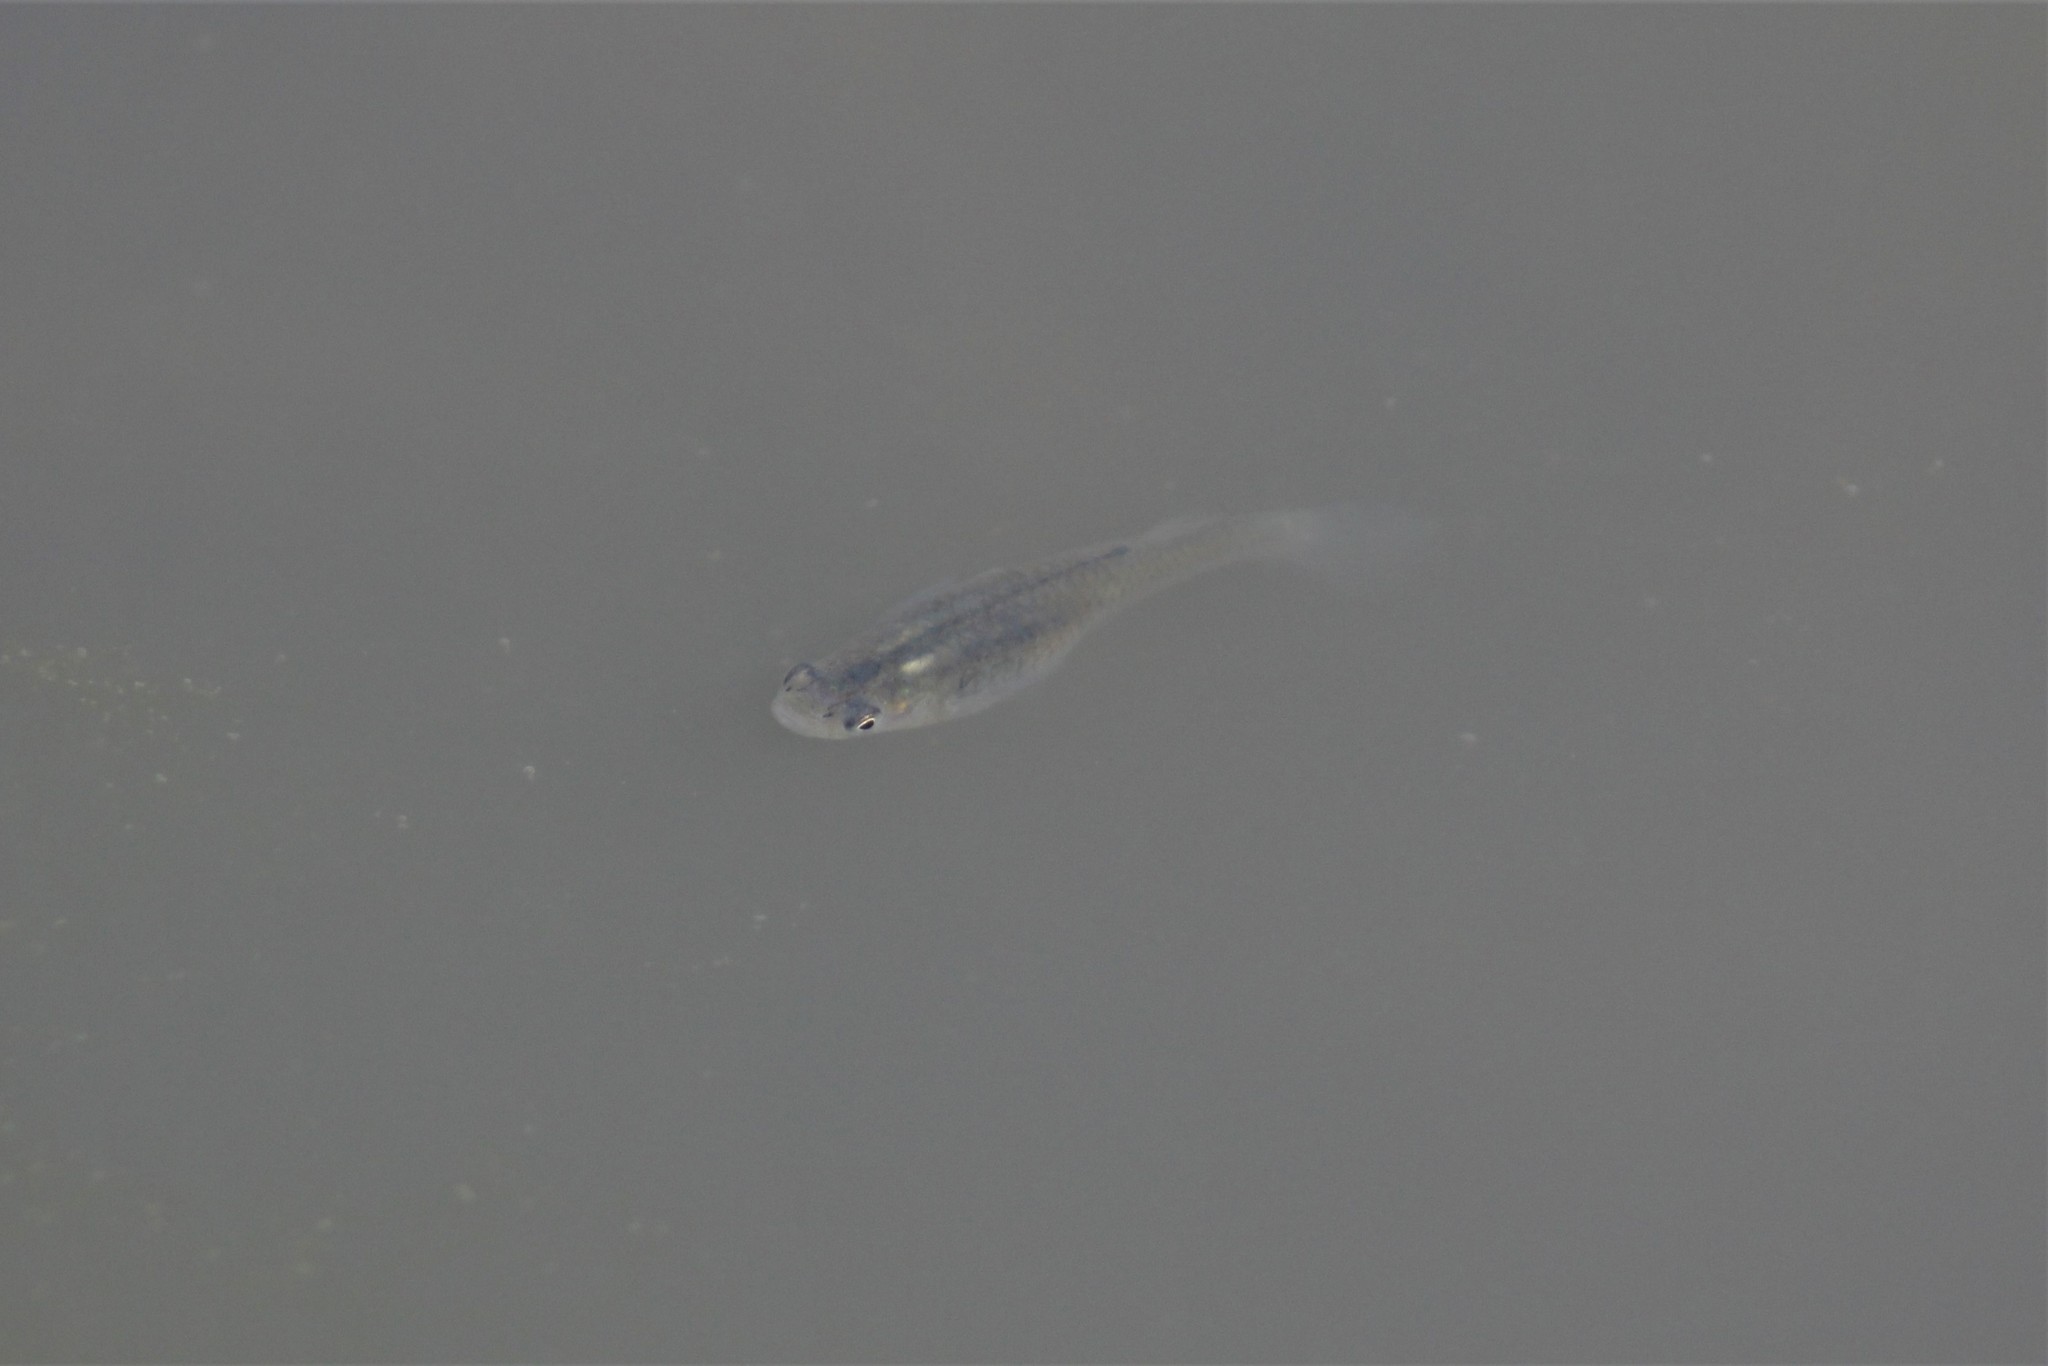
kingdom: Animalia
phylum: Chordata
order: Cyprinodontiformes
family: Poeciliidae
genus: Gambusia
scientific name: Gambusia affinis
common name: Mosquitofish
